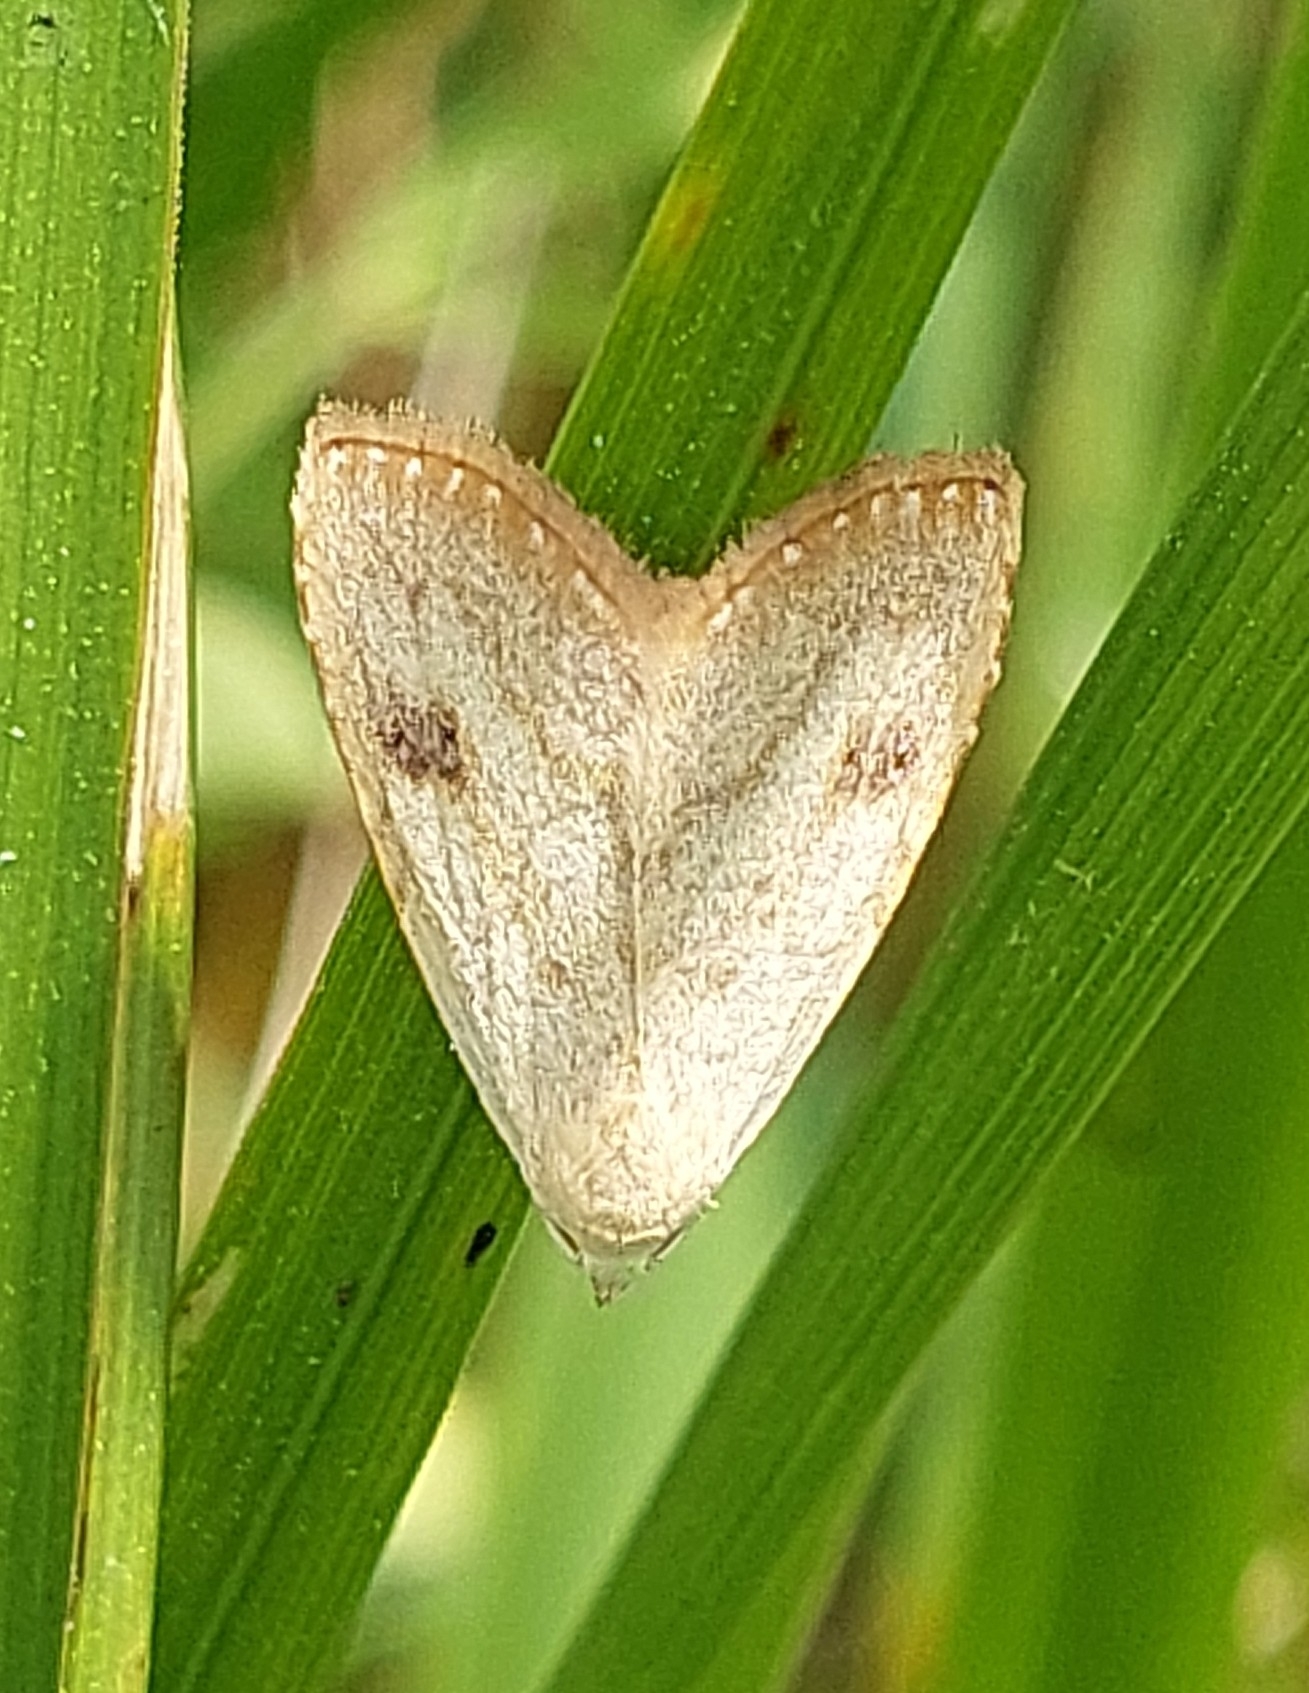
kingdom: Animalia
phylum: Arthropoda
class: Insecta
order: Lepidoptera
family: Erebidae
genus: Rivula
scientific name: Rivula sericealis
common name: Straw dot
